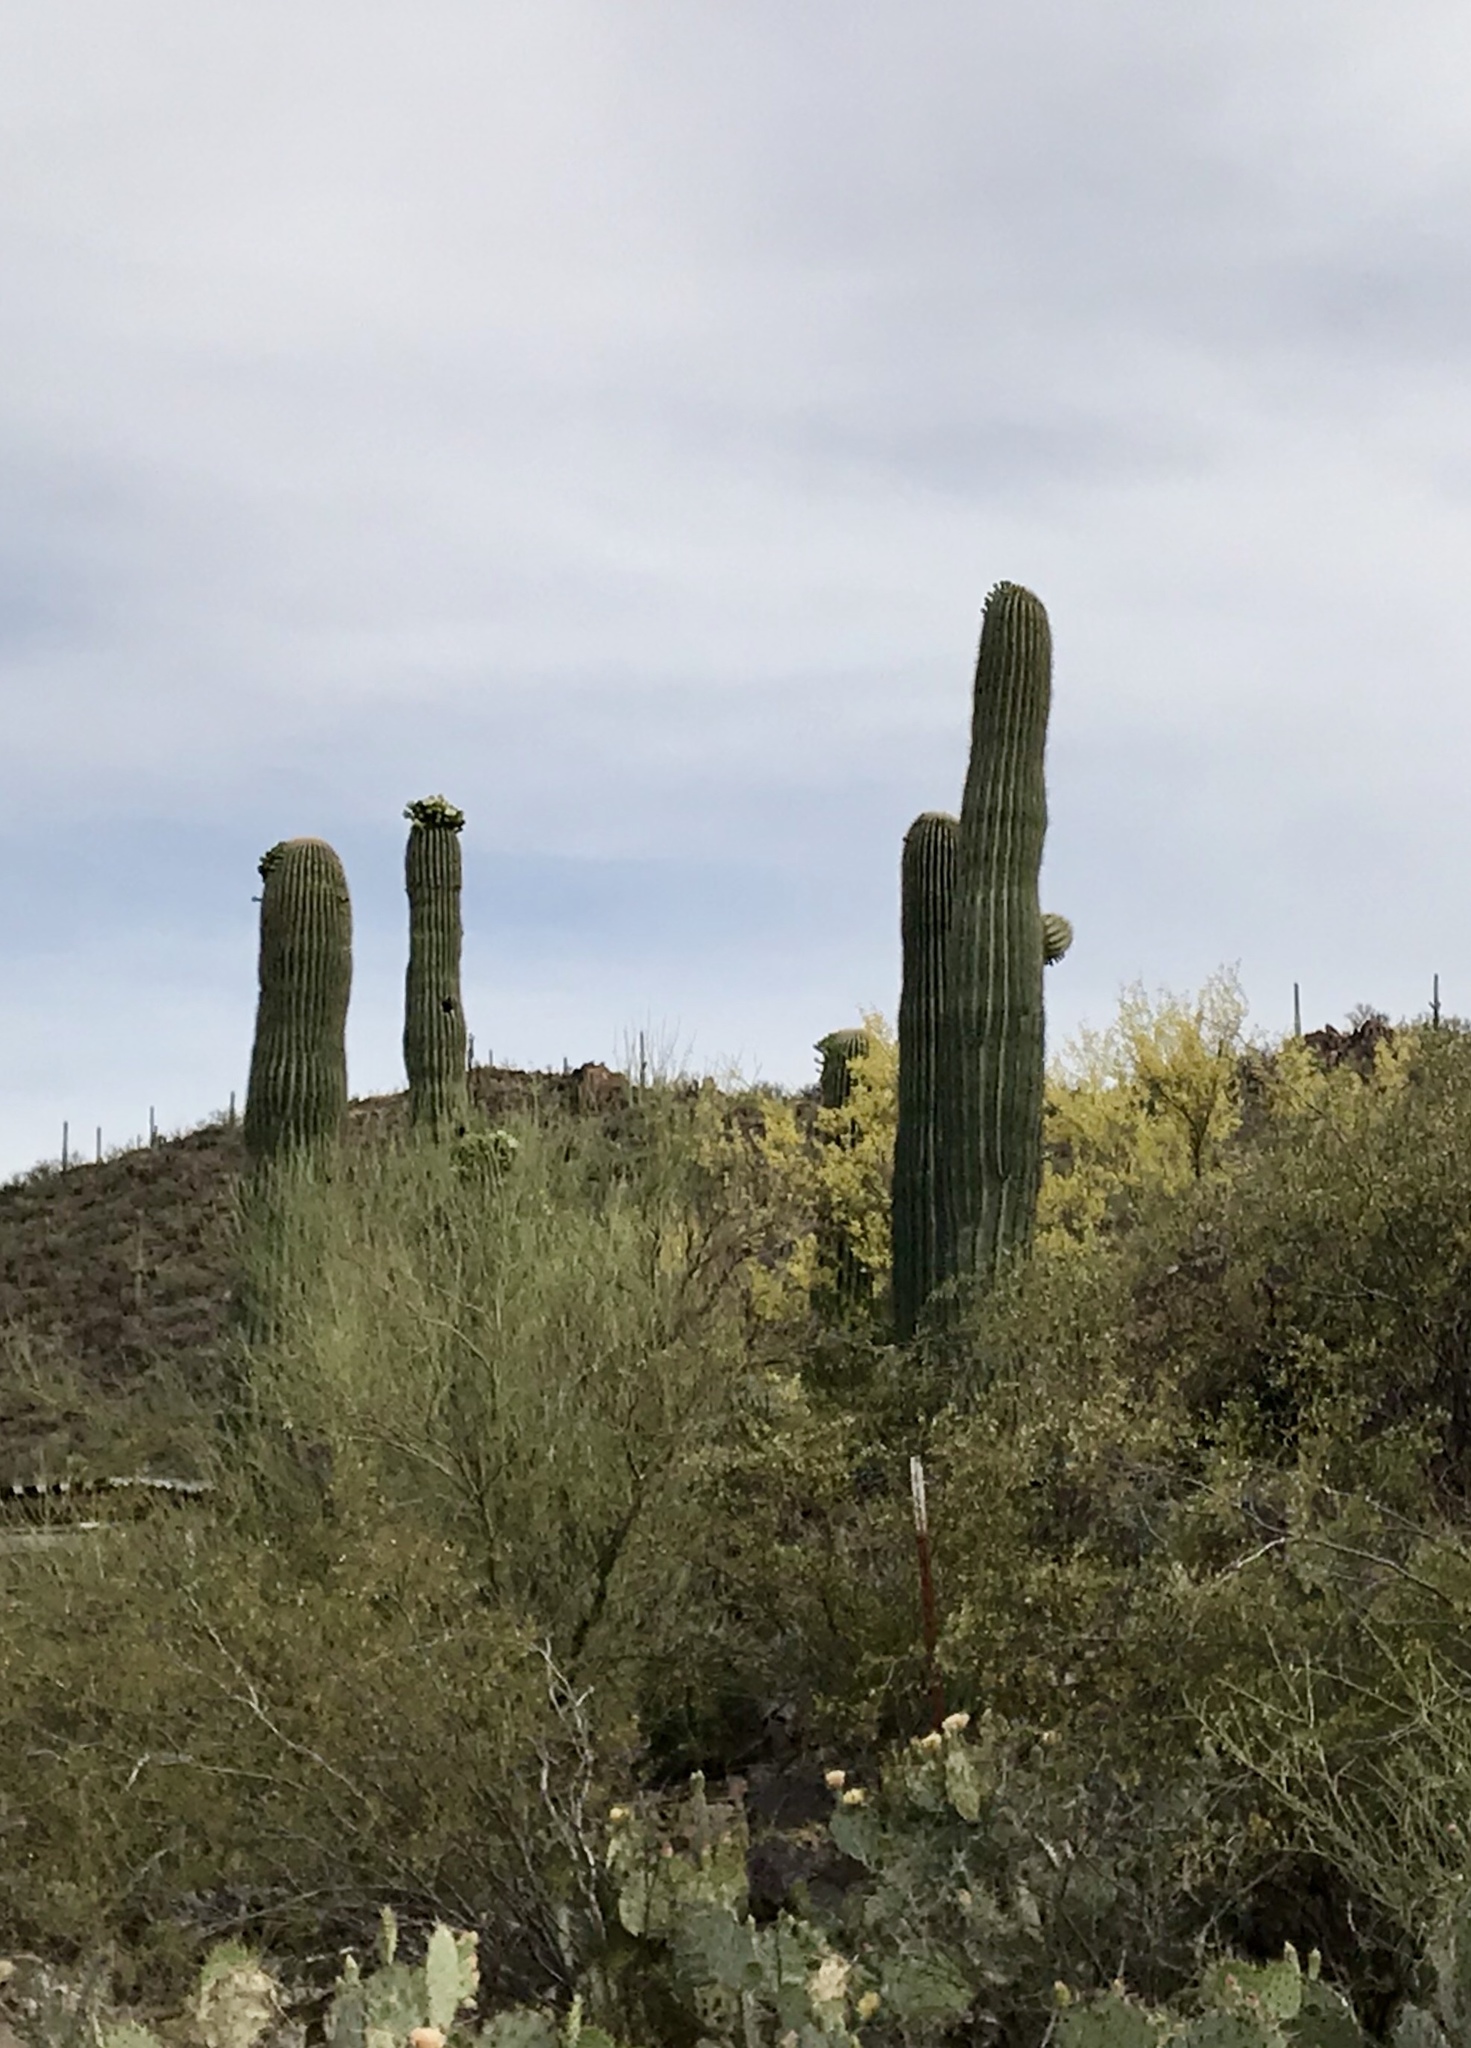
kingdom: Plantae
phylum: Tracheophyta
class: Magnoliopsida
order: Caryophyllales
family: Cactaceae
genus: Carnegiea
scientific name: Carnegiea gigantea
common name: Saguaro
